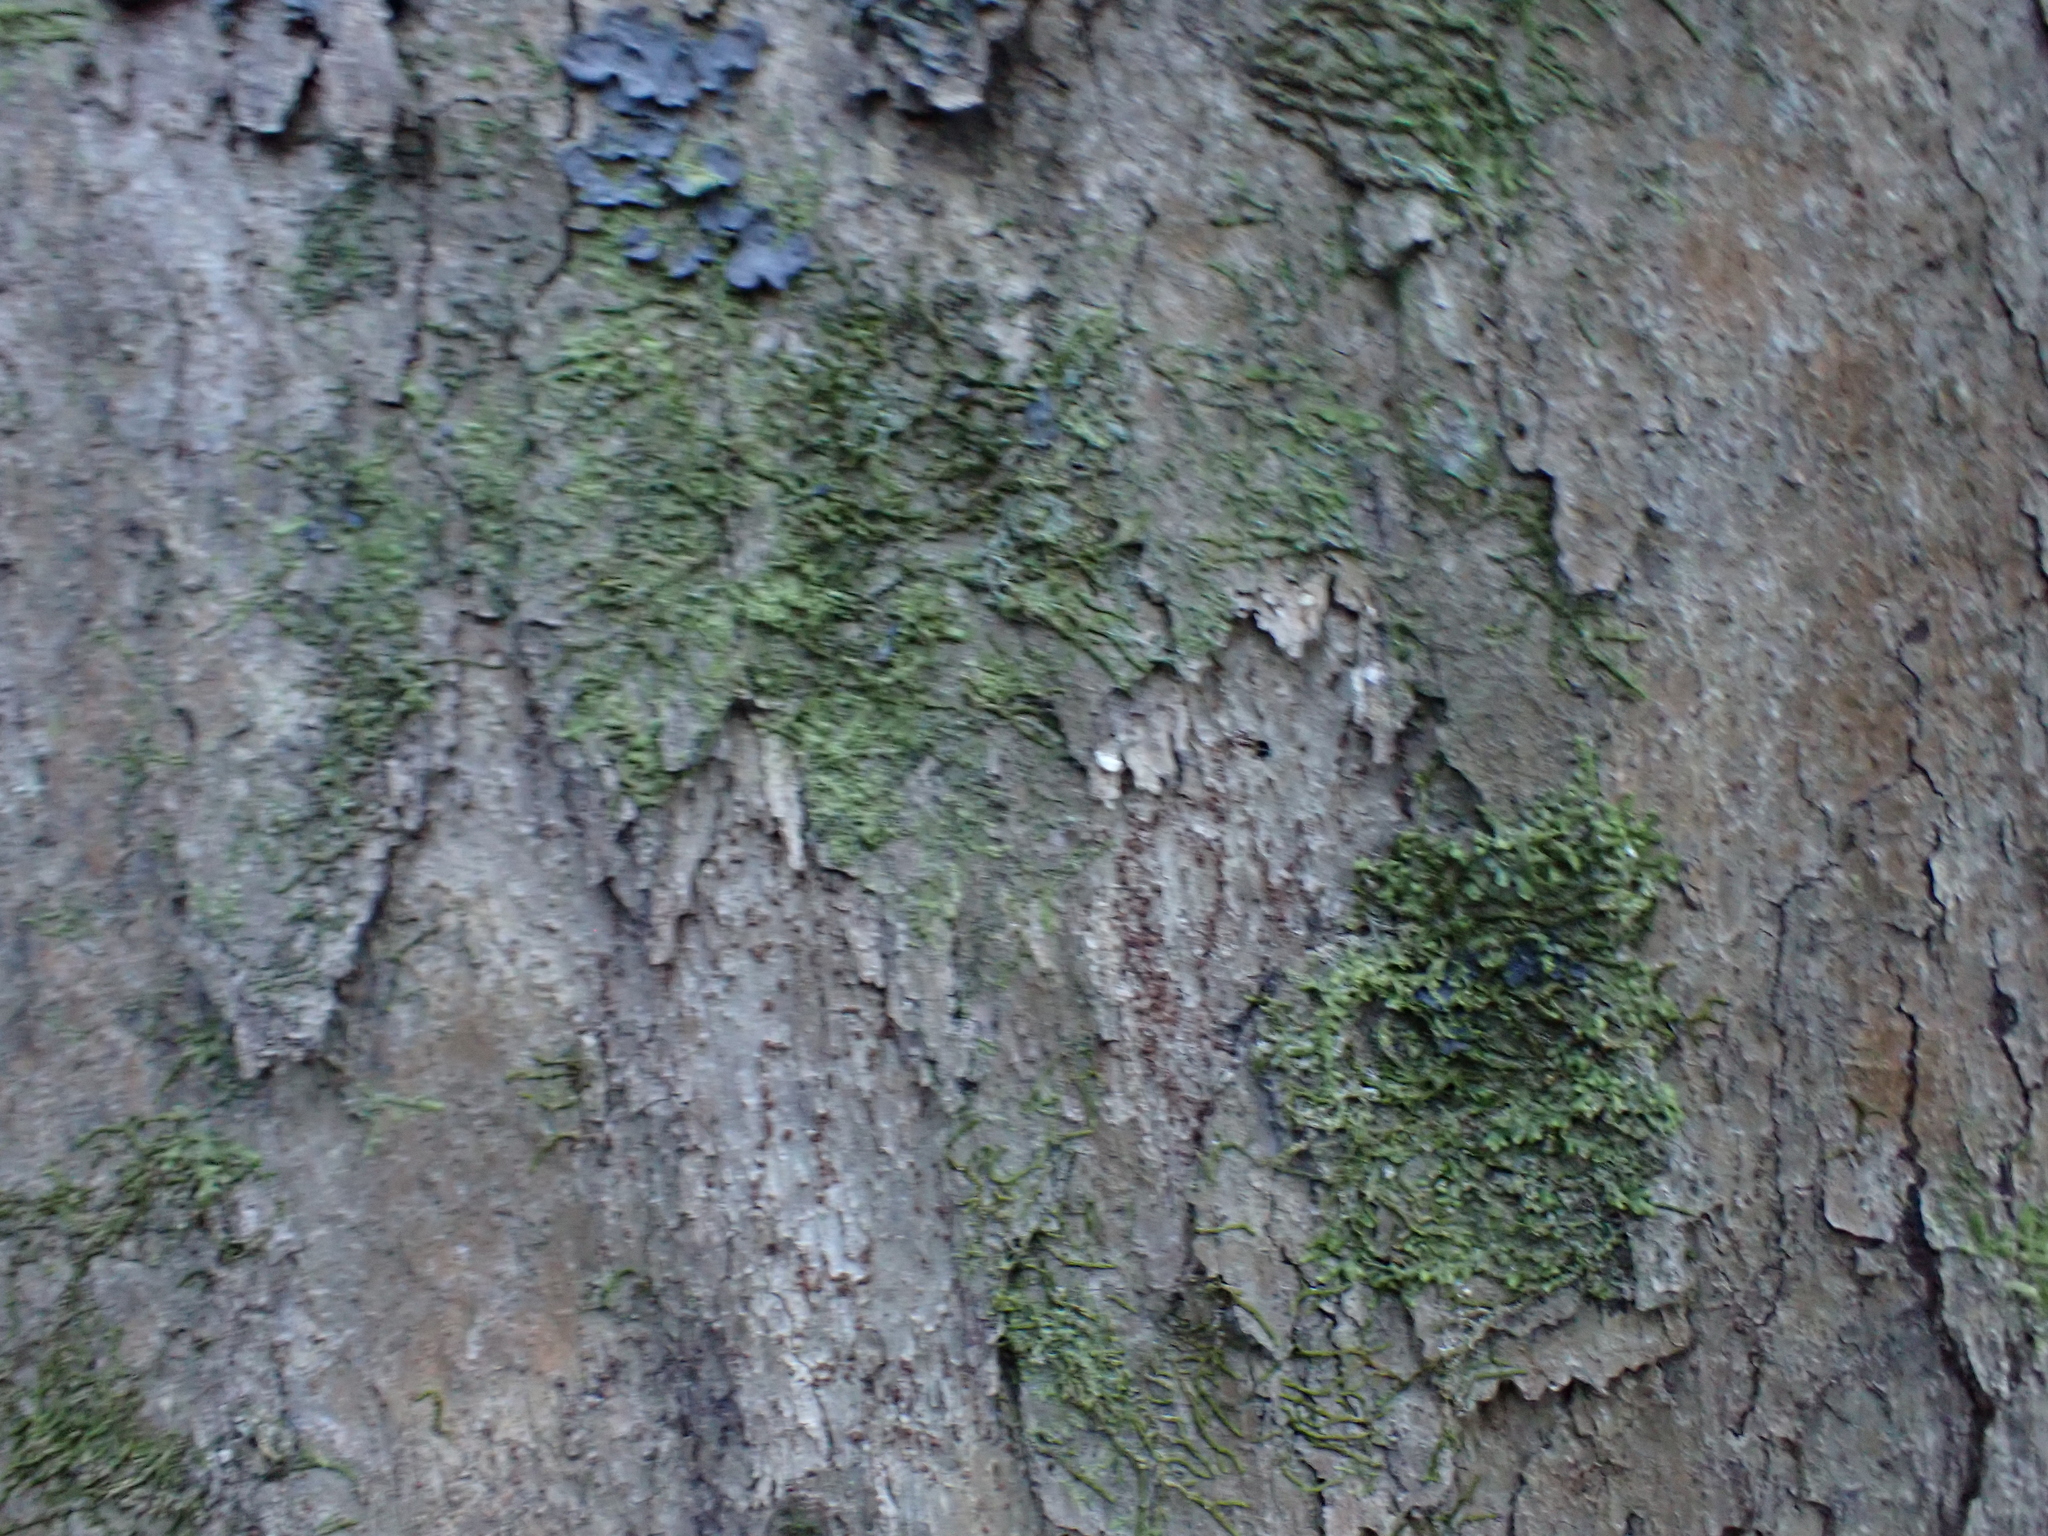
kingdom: Plantae
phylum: Tracheophyta
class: Magnoliopsida
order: Malpighiales
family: Salicaceae
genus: Scolopia
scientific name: Scolopia mundii
